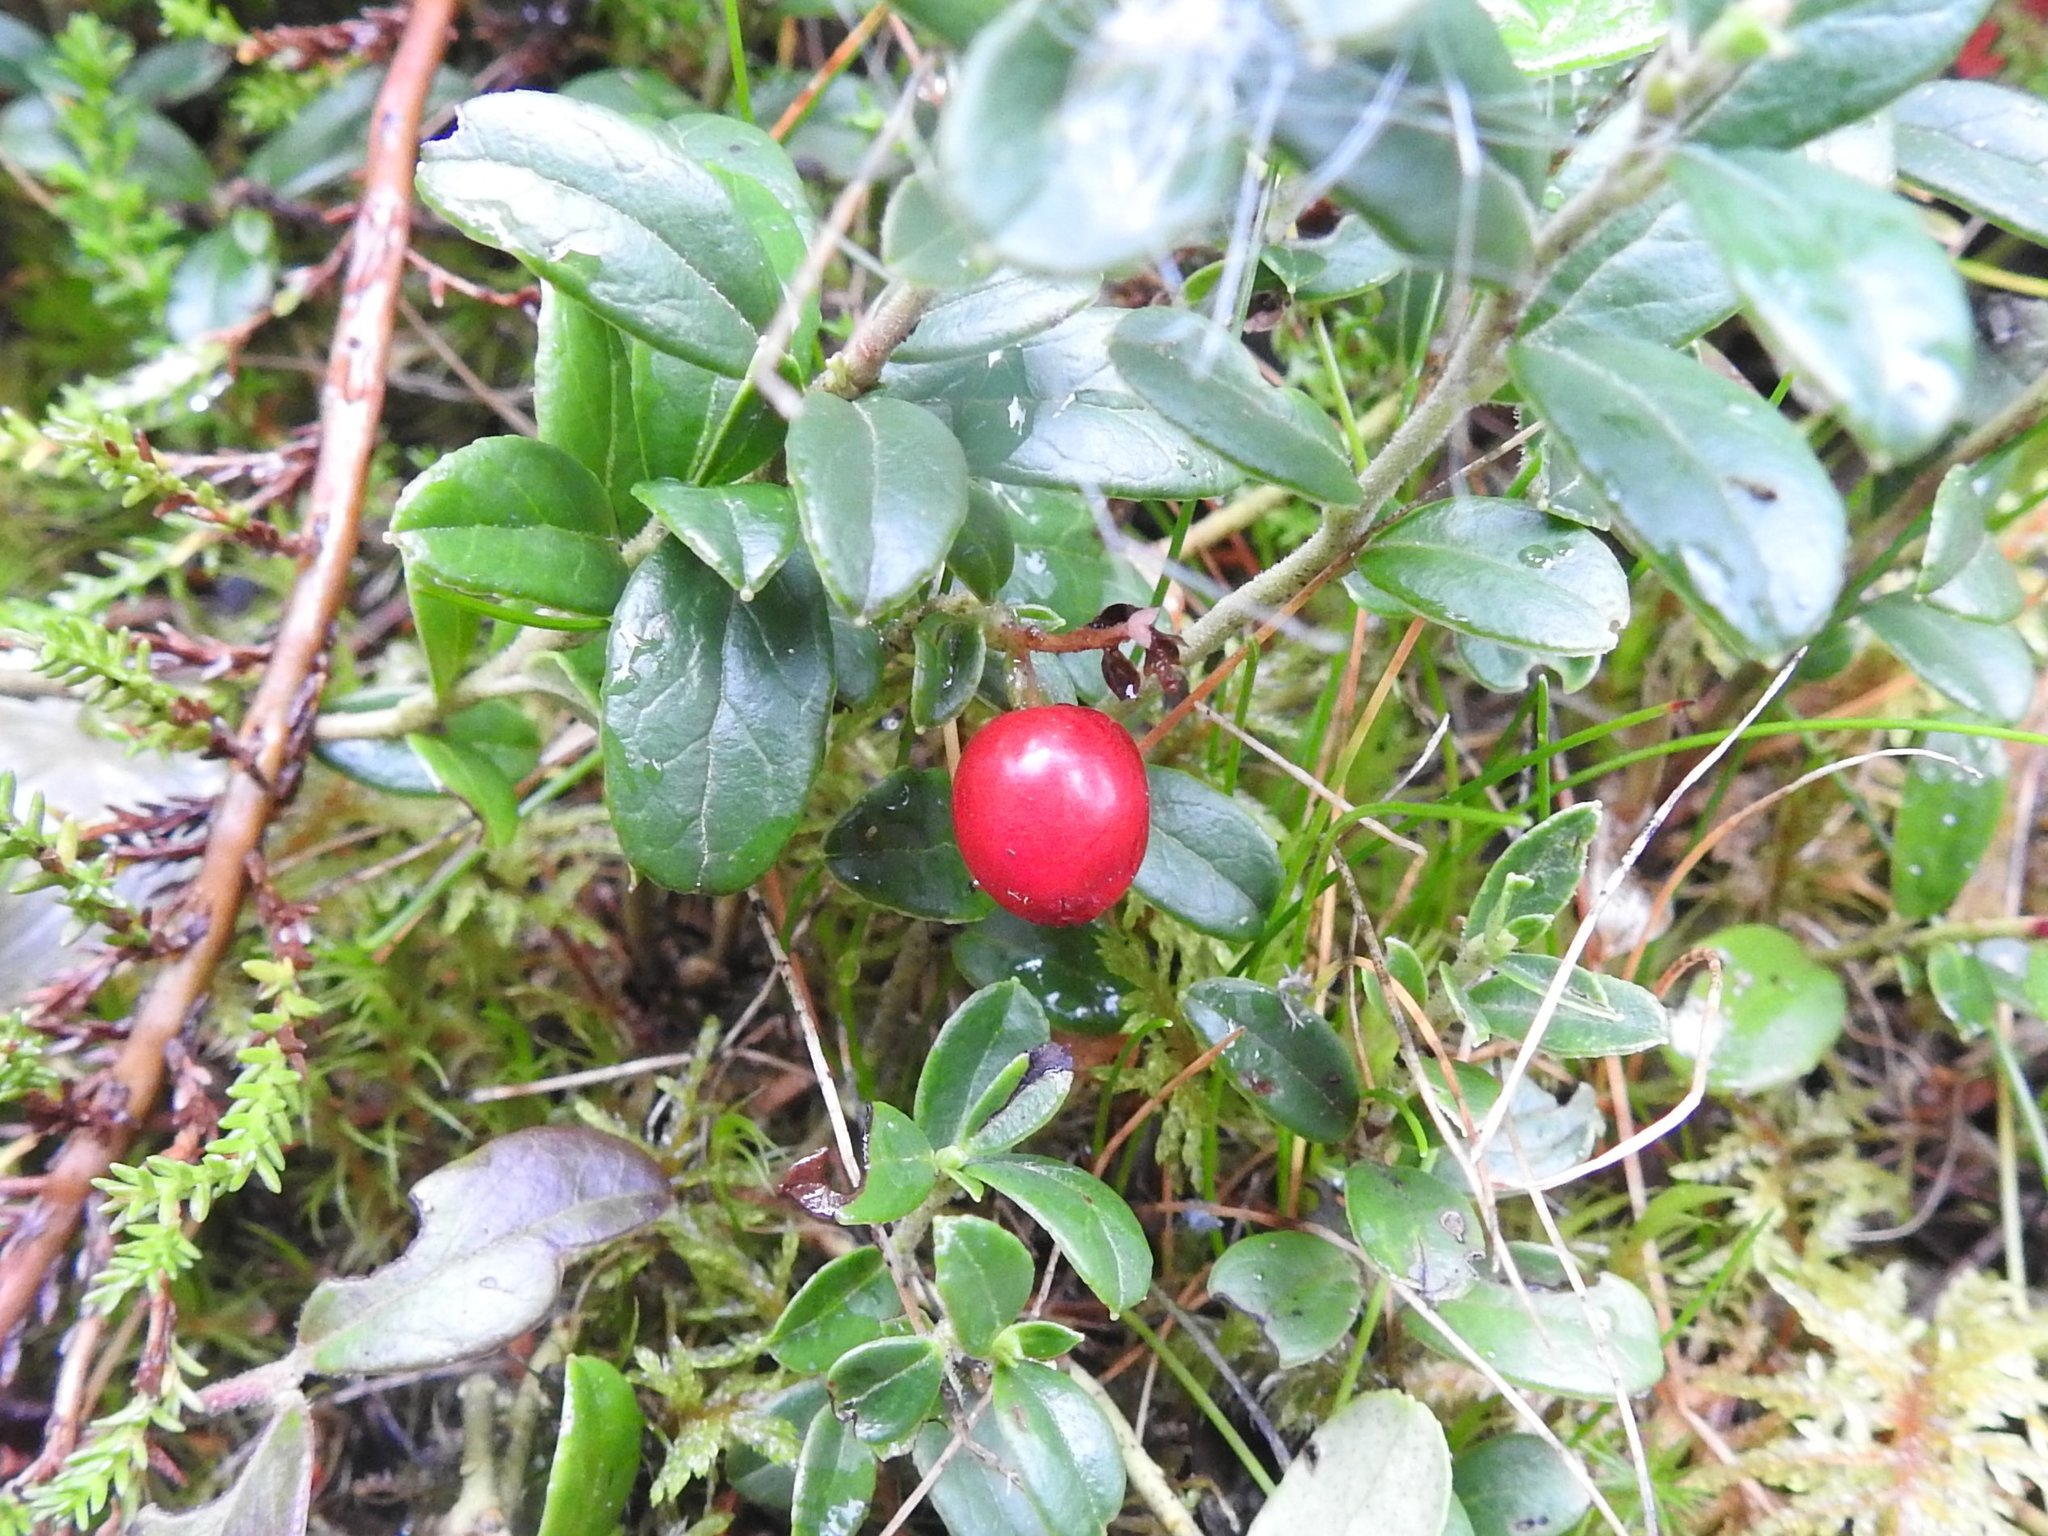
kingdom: Plantae
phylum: Tracheophyta
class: Magnoliopsida
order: Ericales
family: Ericaceae
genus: Vaccinium
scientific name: Vaccinium vitis-idaea
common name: Cowberry
